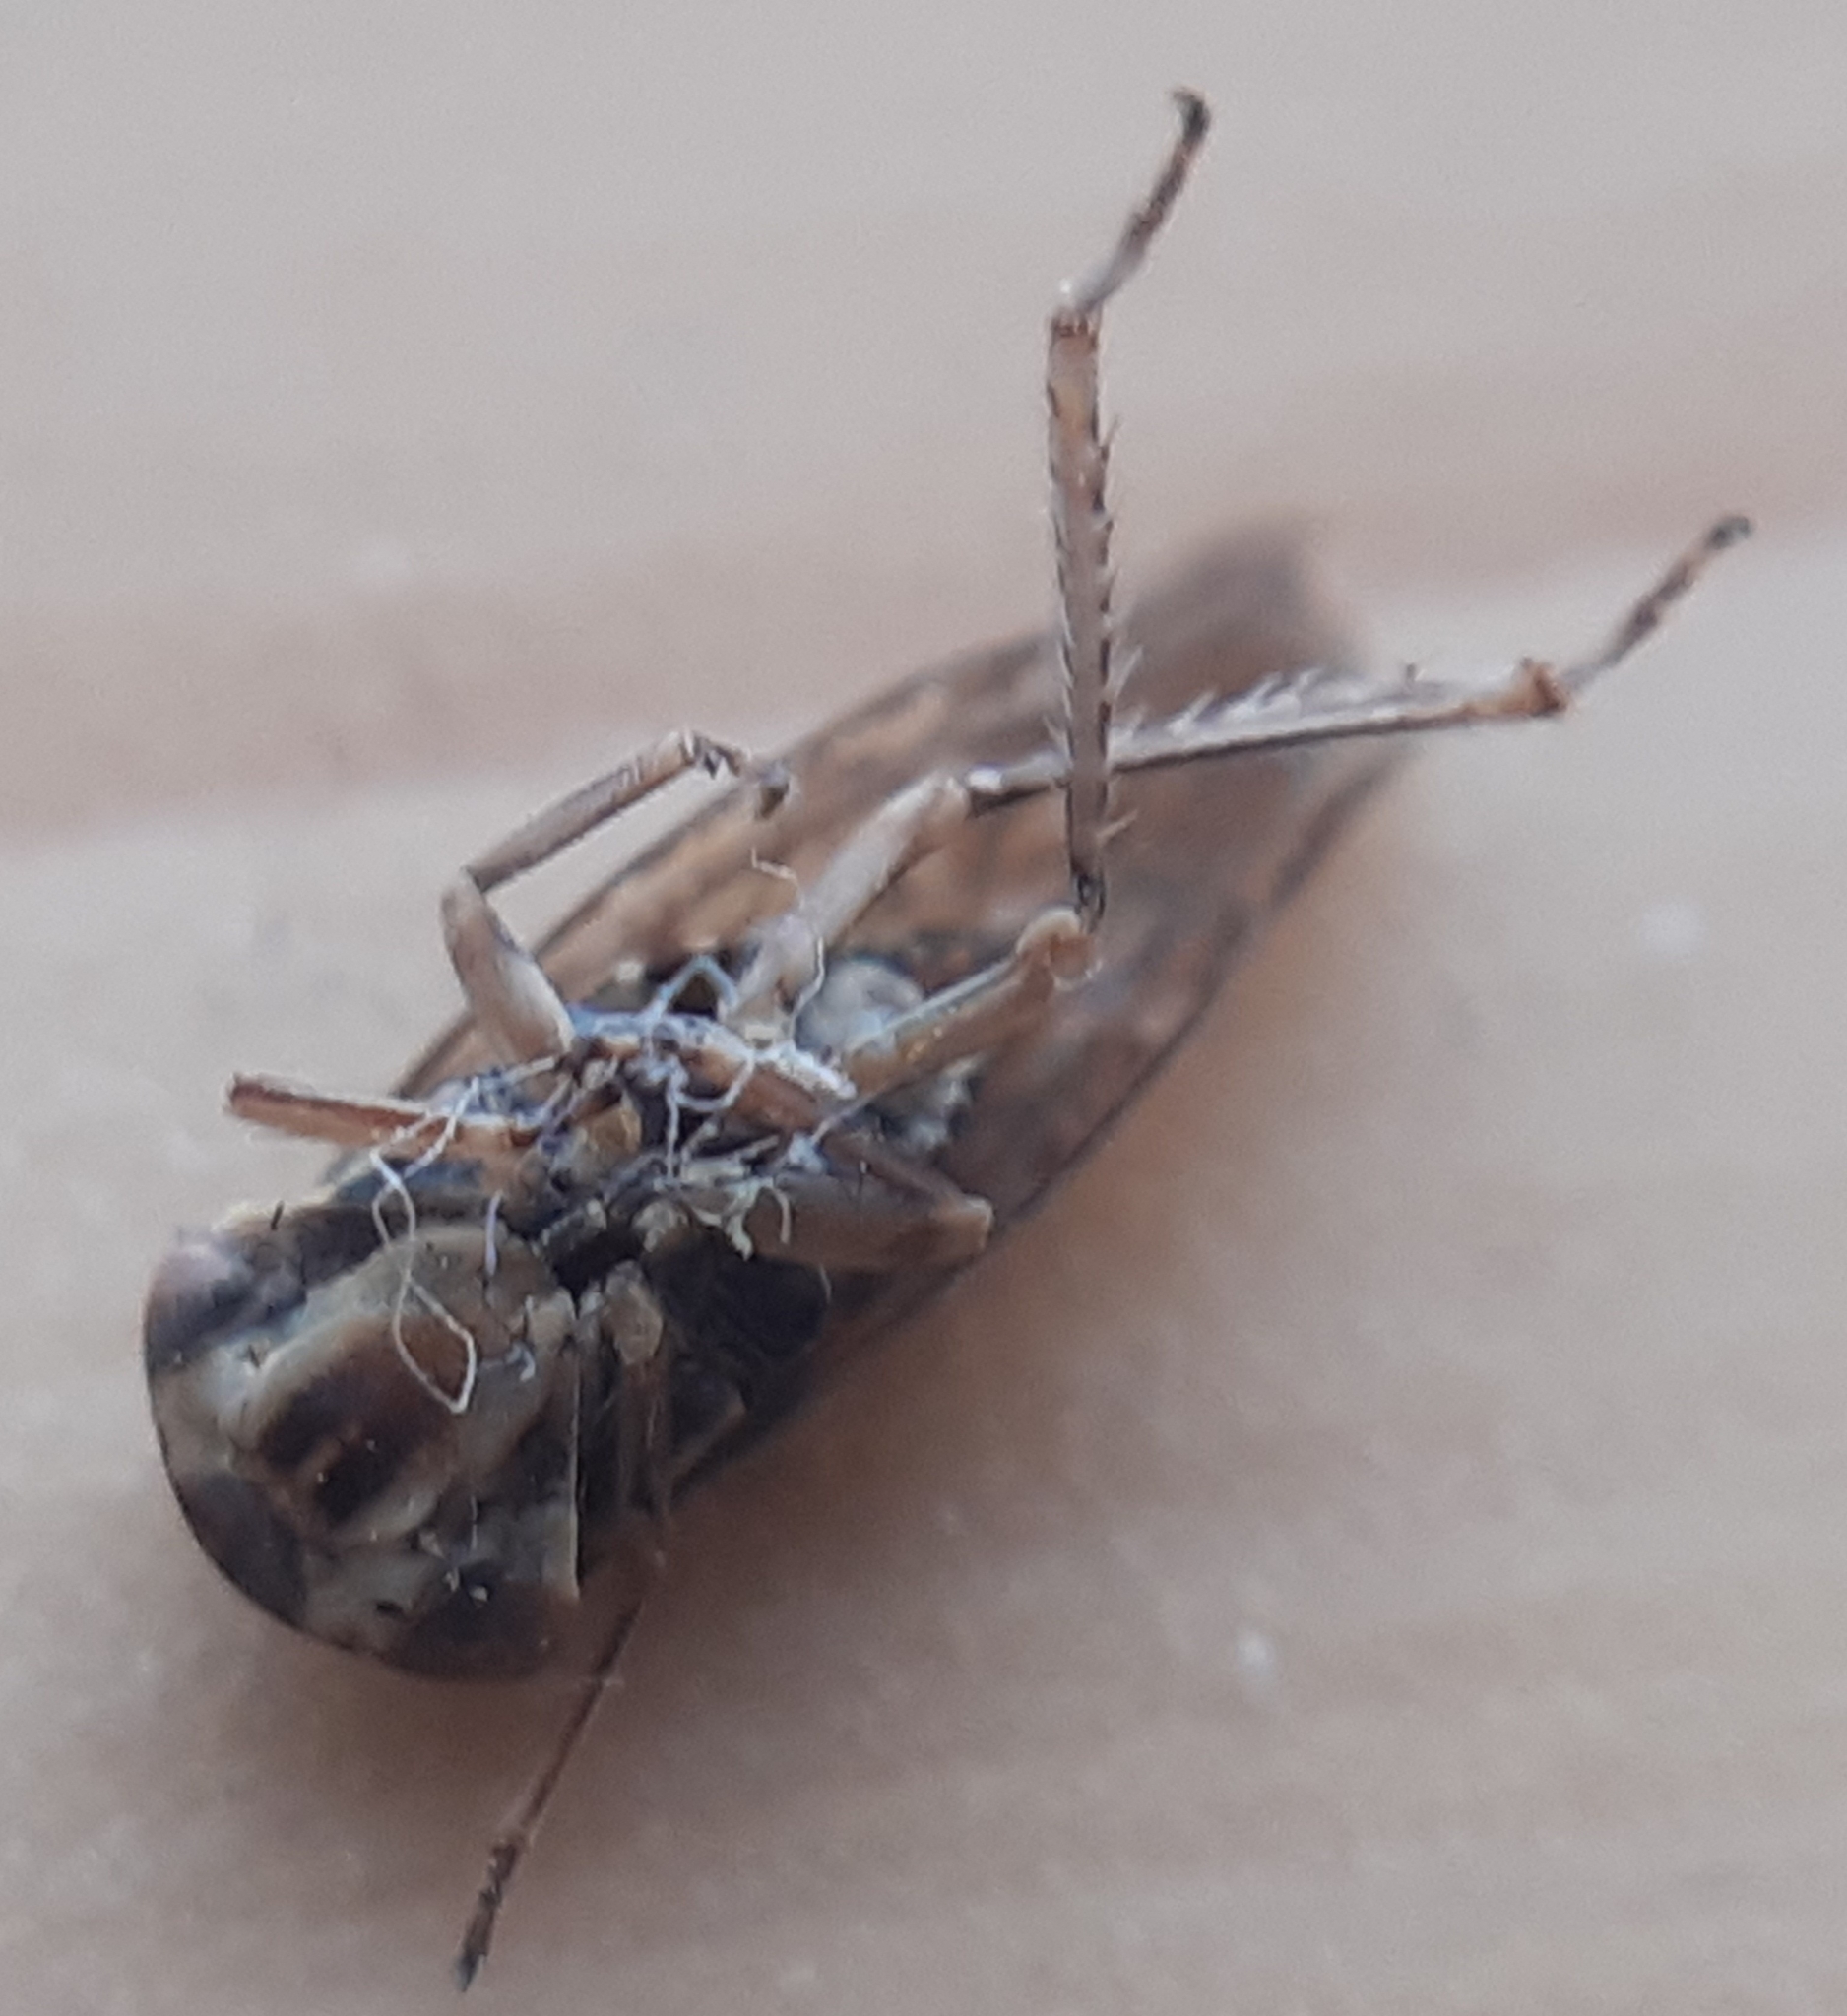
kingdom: Animalia
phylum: Arthropoda
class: Insecta
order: Hemiptera
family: Cicadellidae
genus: Acericerus
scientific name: Acericerus ribauti
